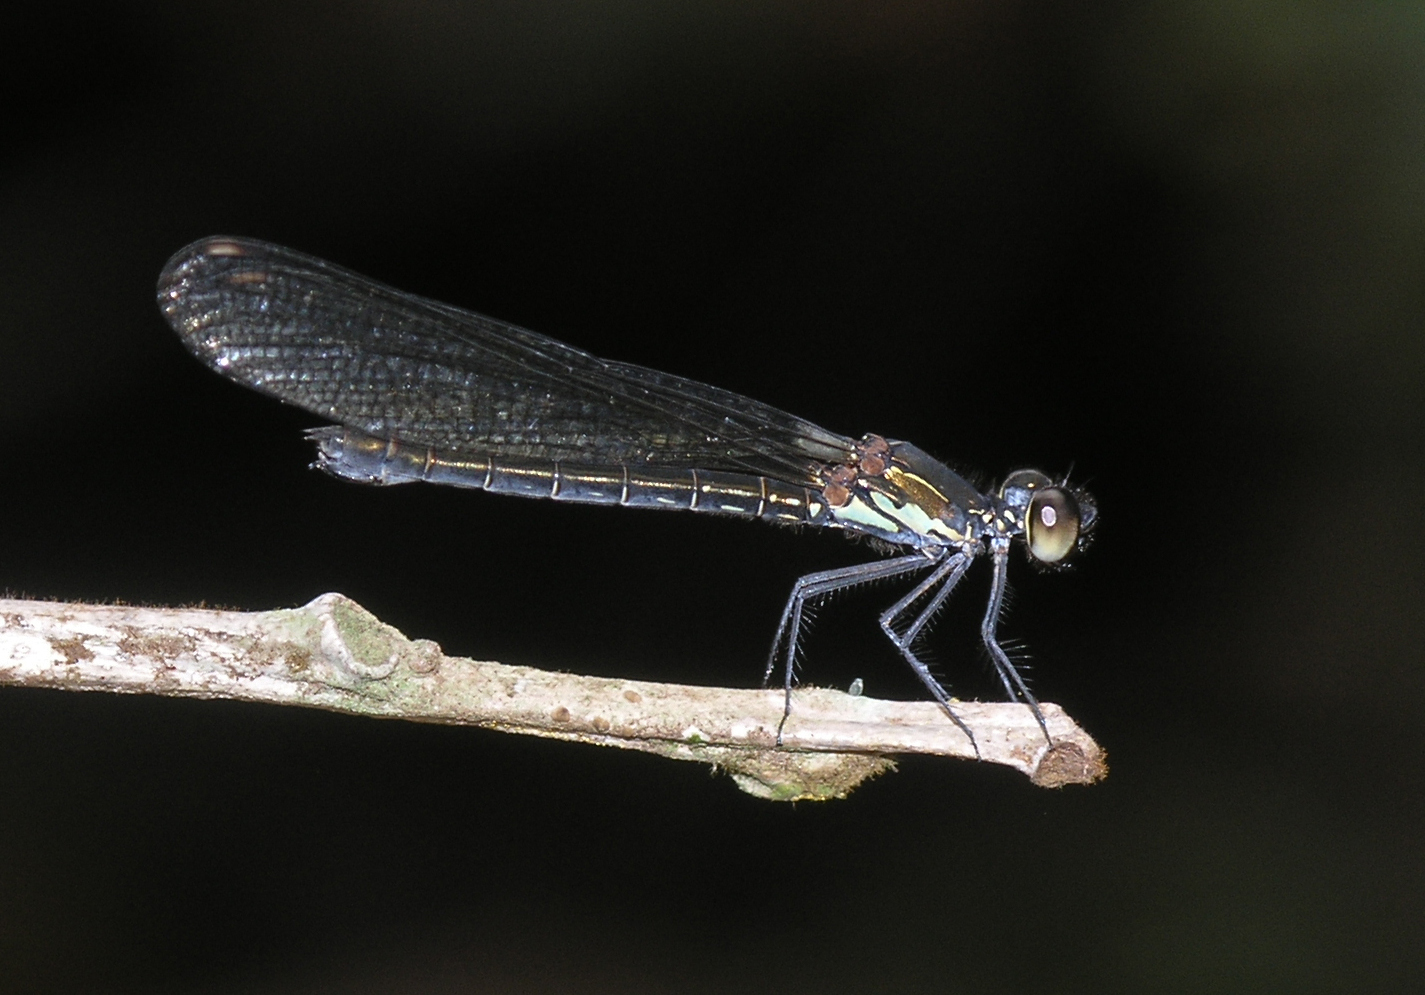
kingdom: Animalia
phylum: Arthropoda
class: Insecta
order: Odonata
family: Chlorocyphidae
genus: Heliocypha
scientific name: Heliocypha biforata
